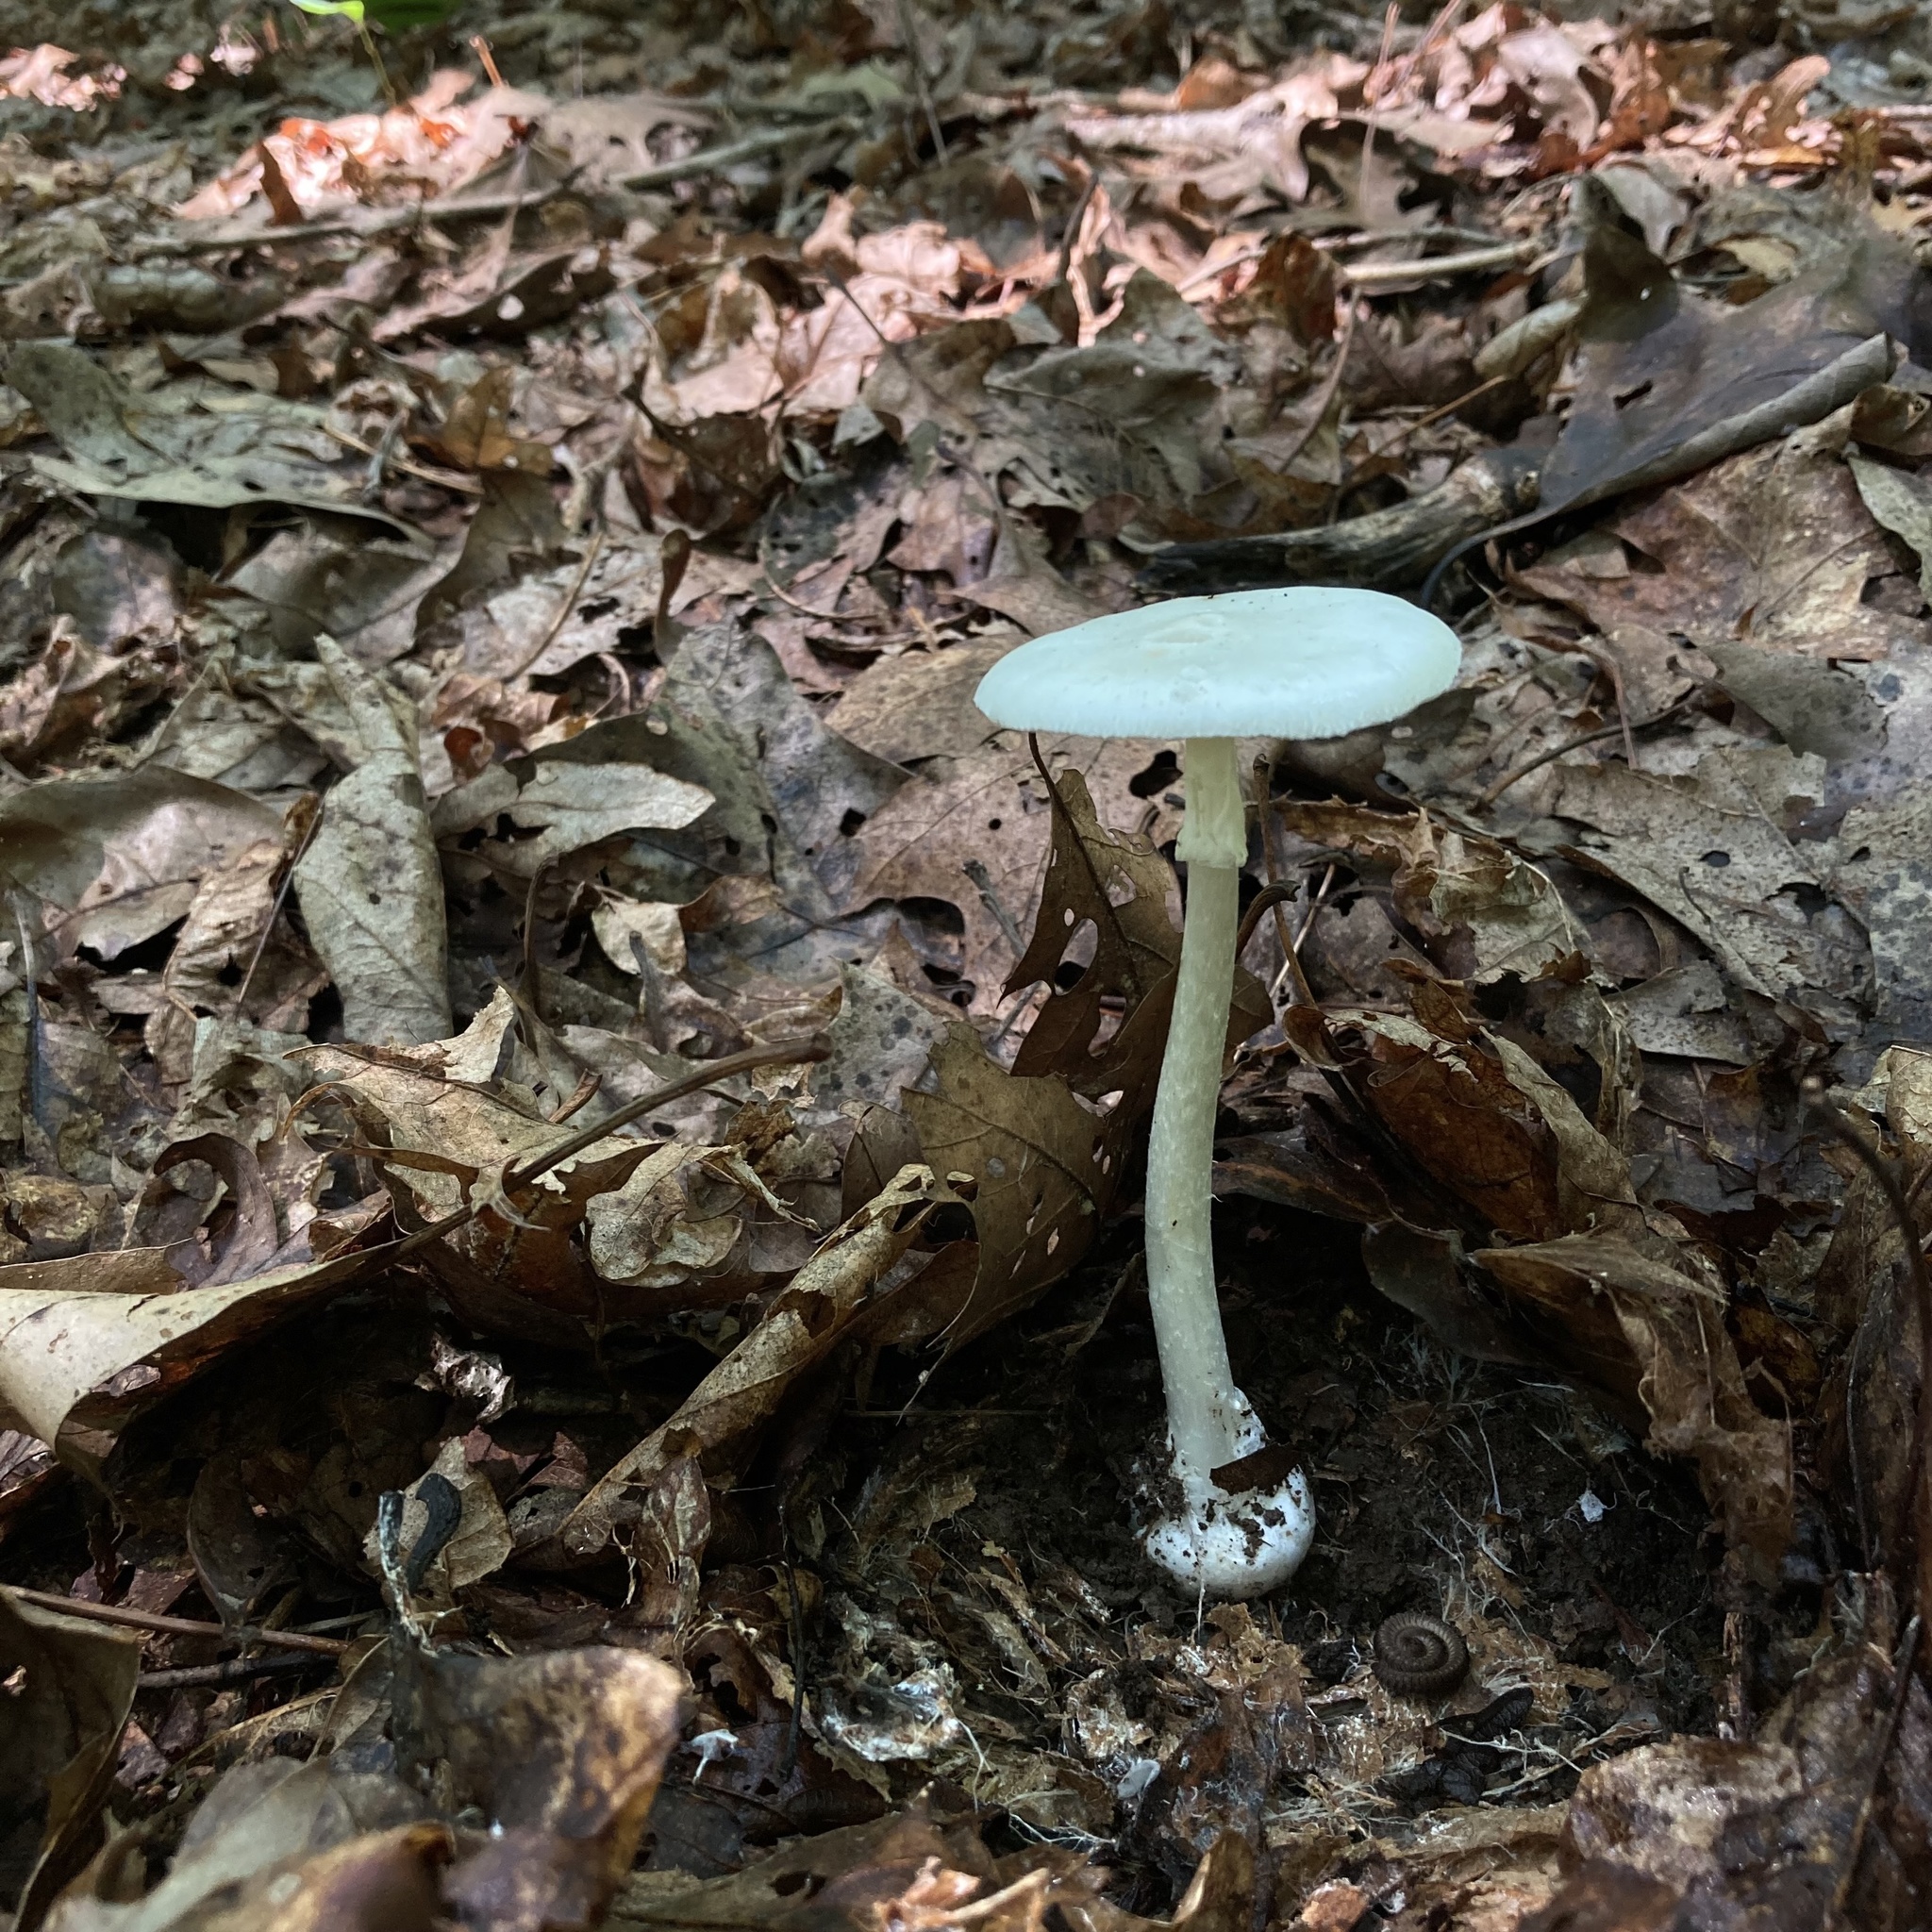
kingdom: Fungi
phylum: Basidiomycota
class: Agaricomycetes
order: Agaricales
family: Amanitaceae
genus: Amanita
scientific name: Amanita bisporigera
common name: Eastern north american destroying angel
